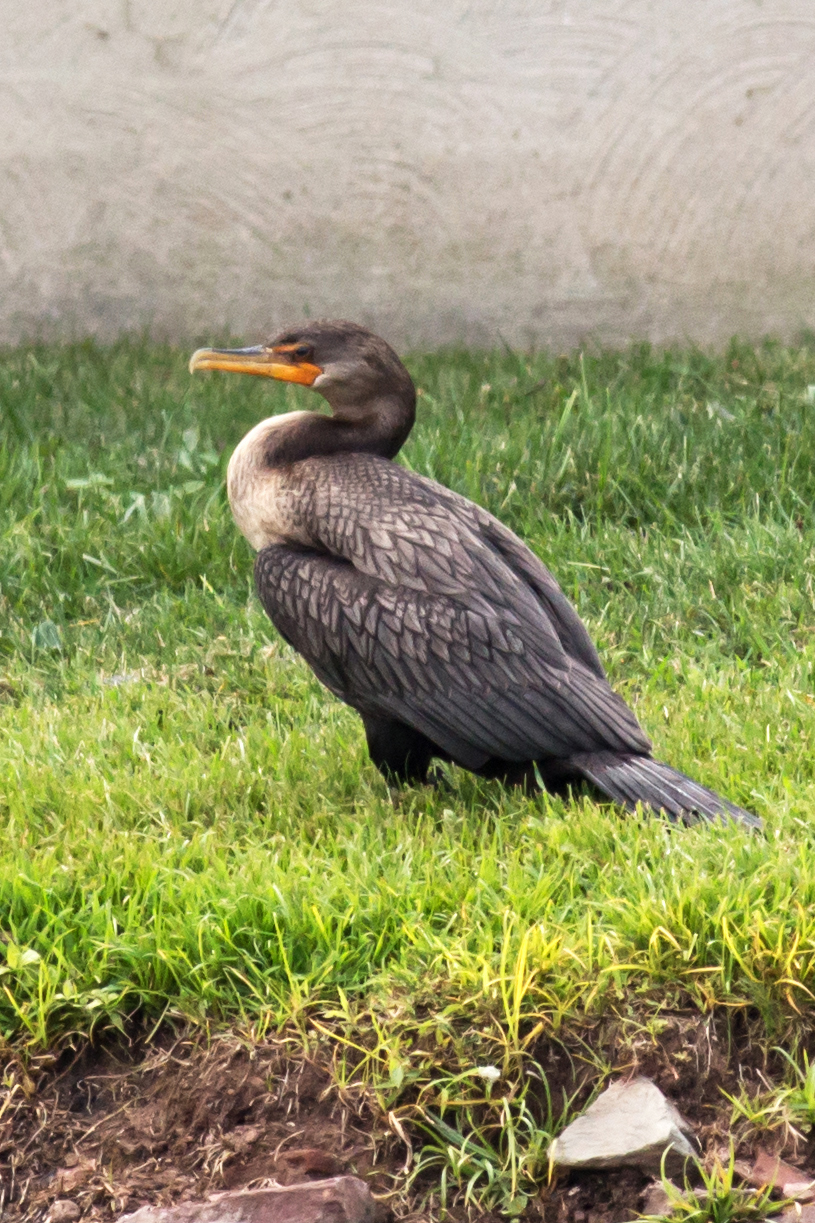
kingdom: Animalia
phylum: Chordata
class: Aves
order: Suliformes
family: Phalacrocoracidae
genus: Phalacrocorax
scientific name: Phalacrocorax auritus
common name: Double-crested cormorant
